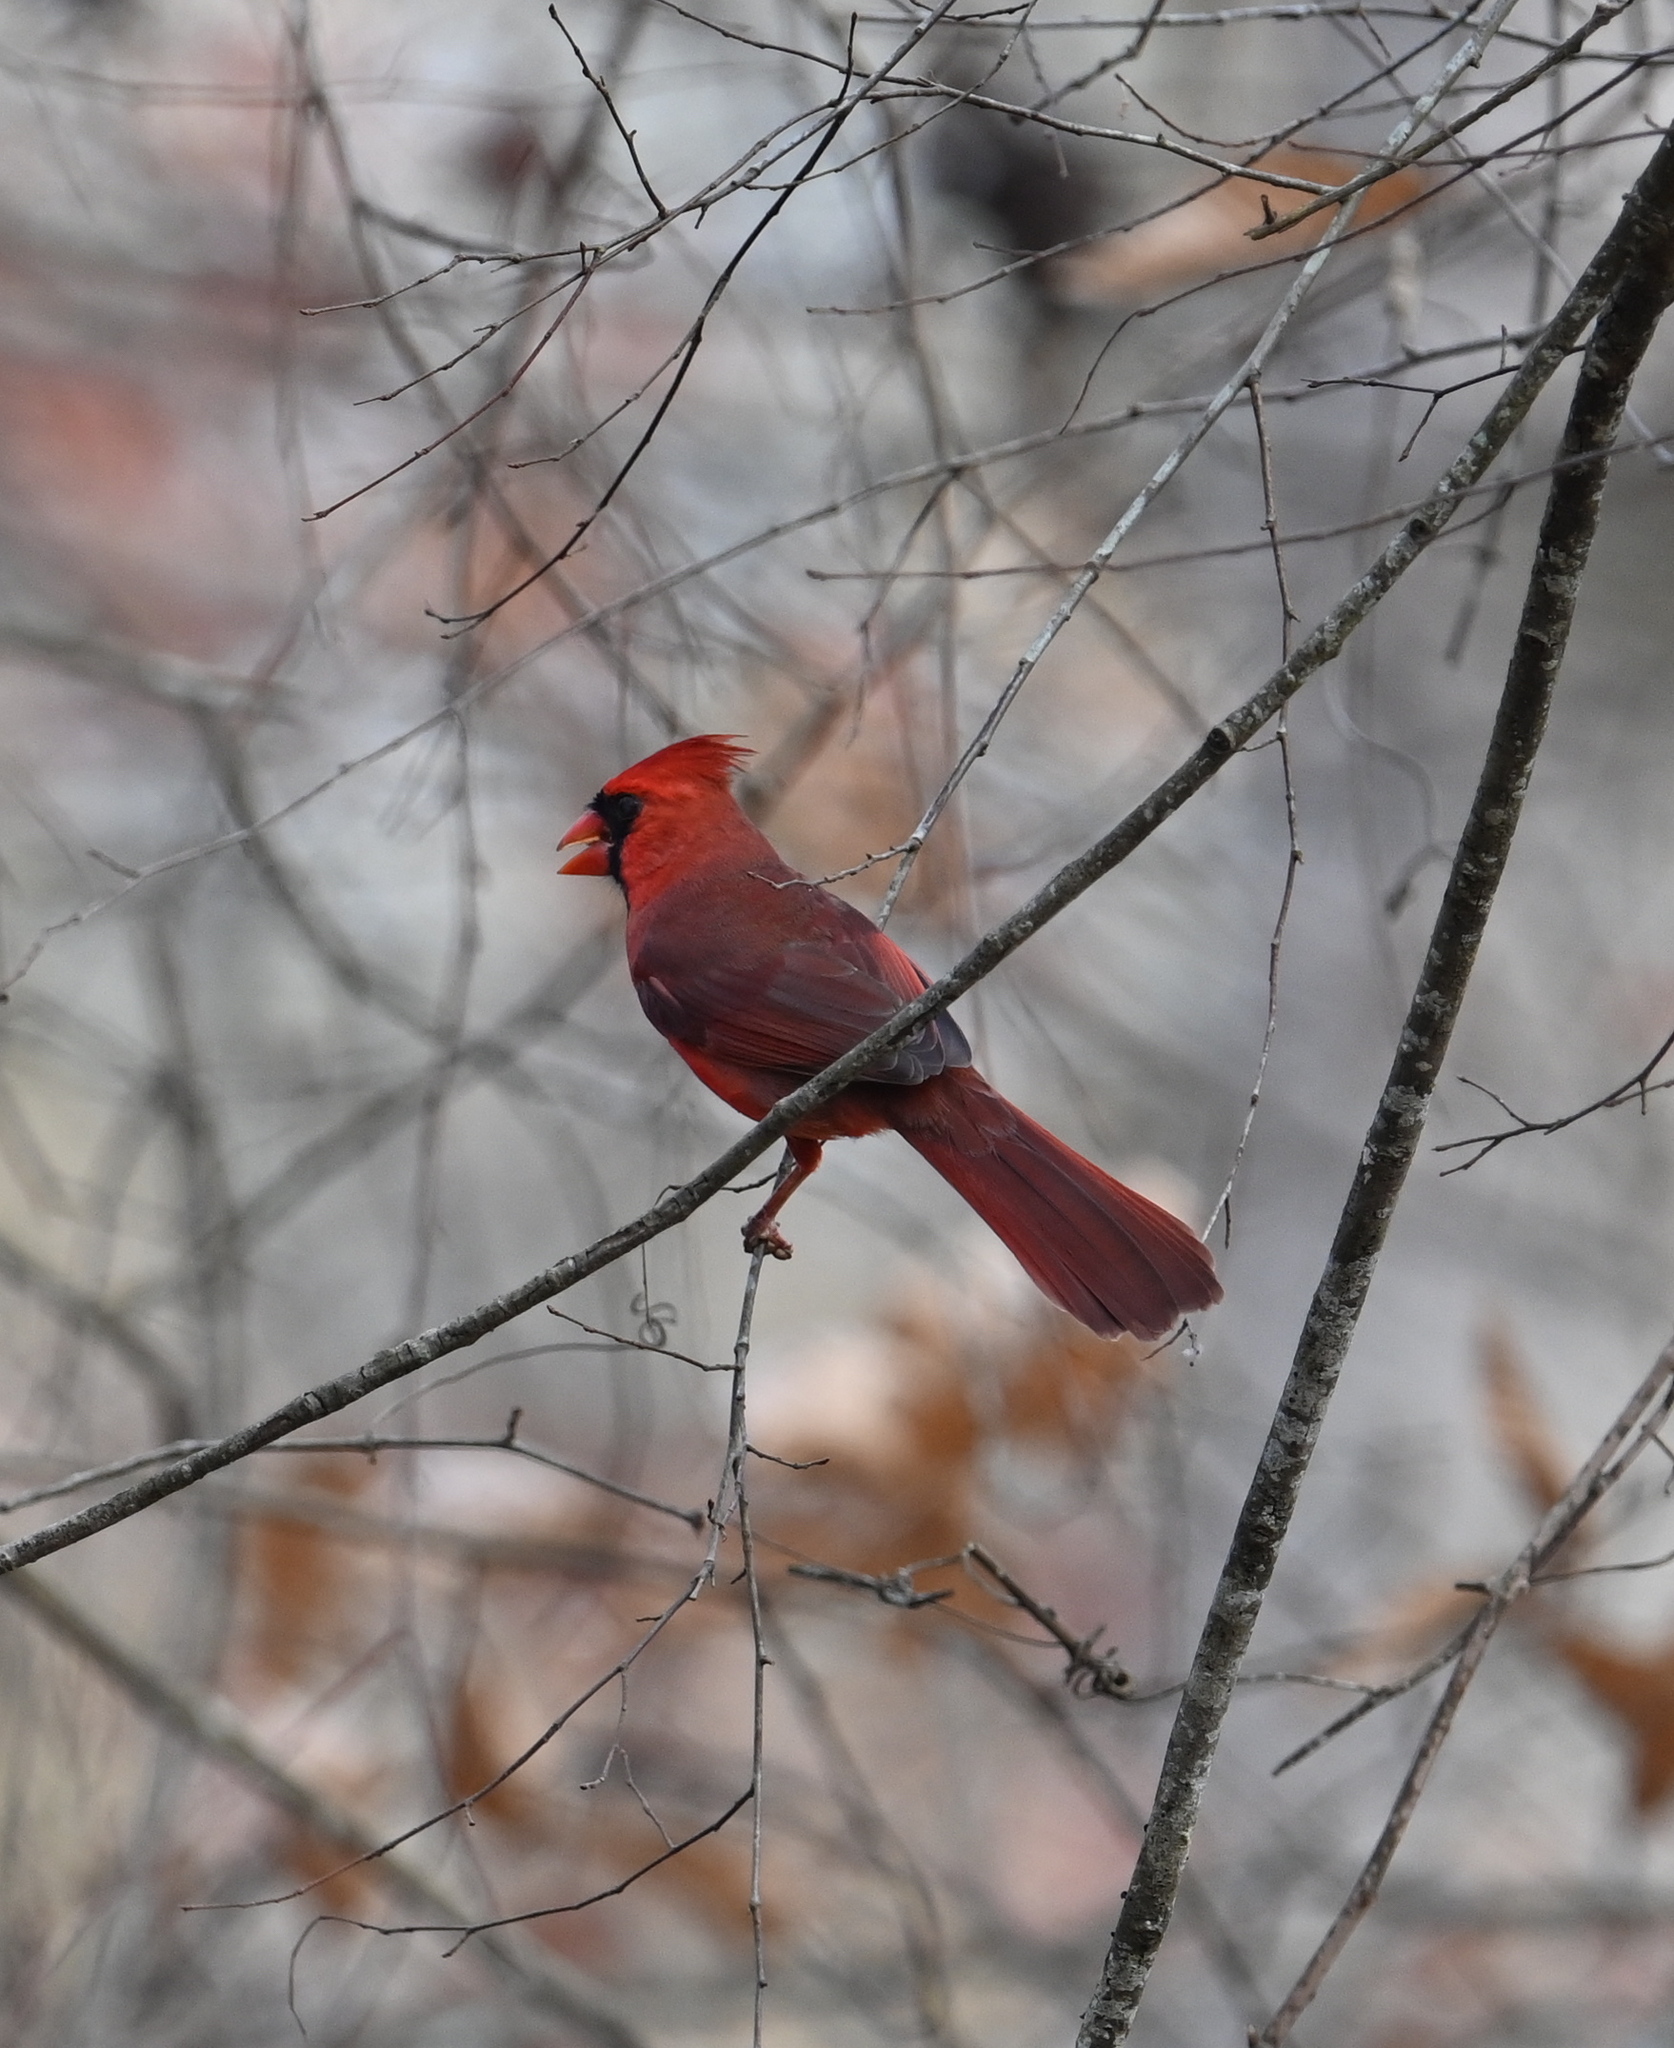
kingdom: Animalia
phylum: Chordata
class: Aves
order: Passeriformes
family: Cardinalidae
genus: Cardinalis
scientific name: Cardinalis cardinalis
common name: Northern cardinal
